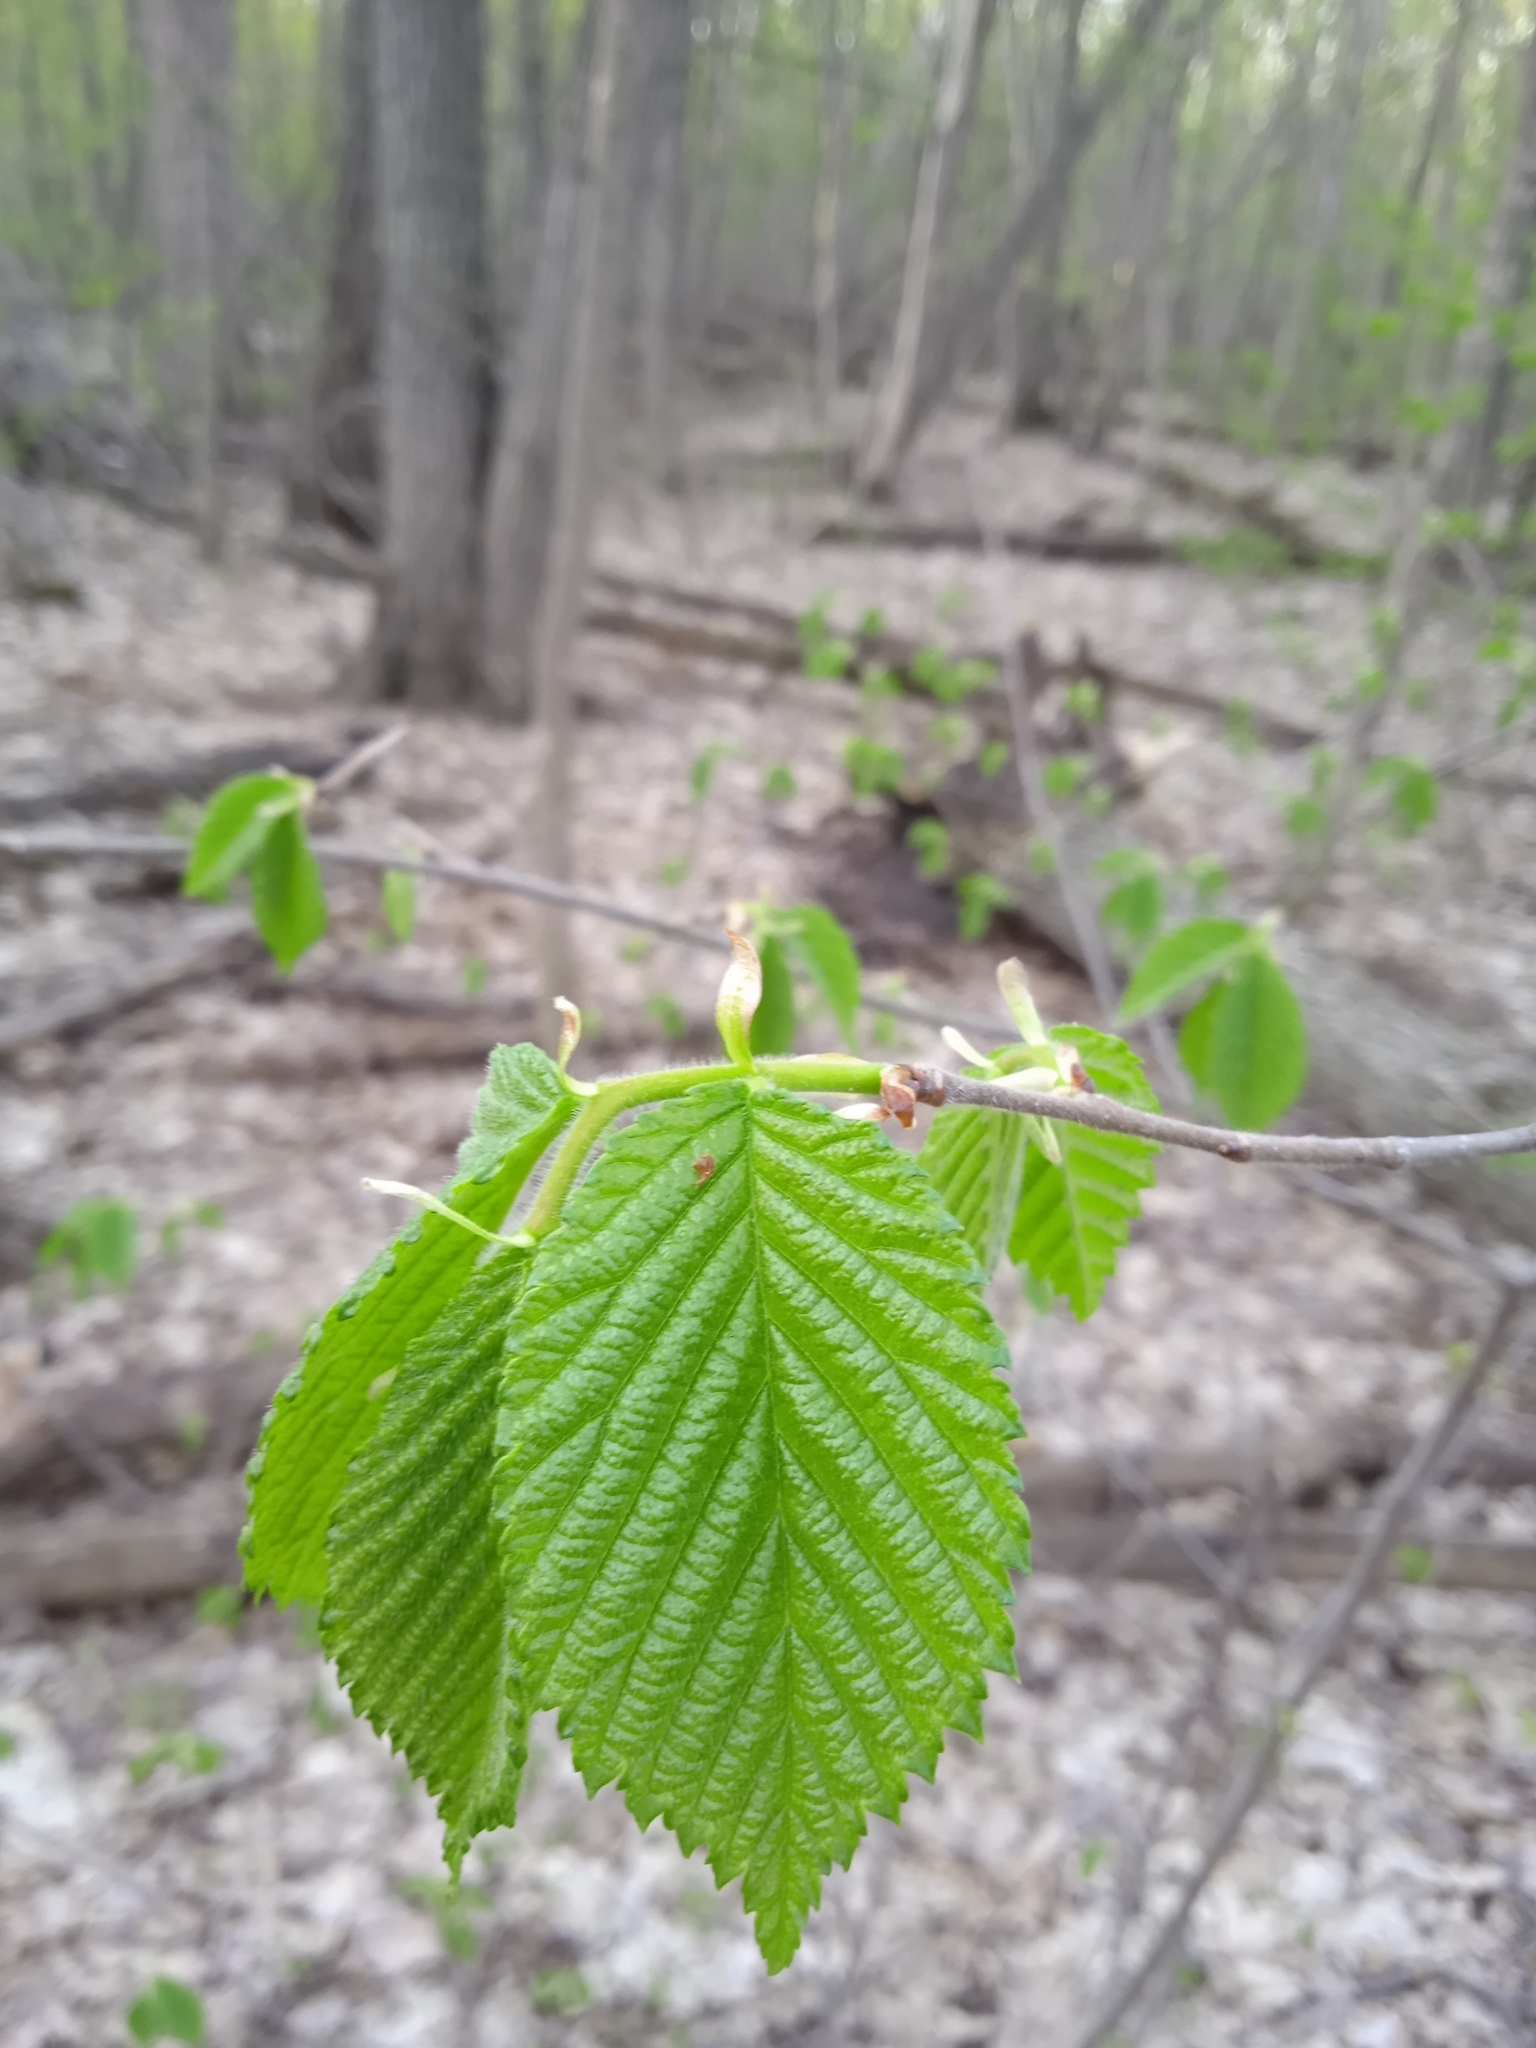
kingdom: Plantae
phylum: Tracheophyta
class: Magnoliopsida
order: Fagales
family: Betulaceae
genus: Corylus
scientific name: Corylus avellana
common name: European hazel
